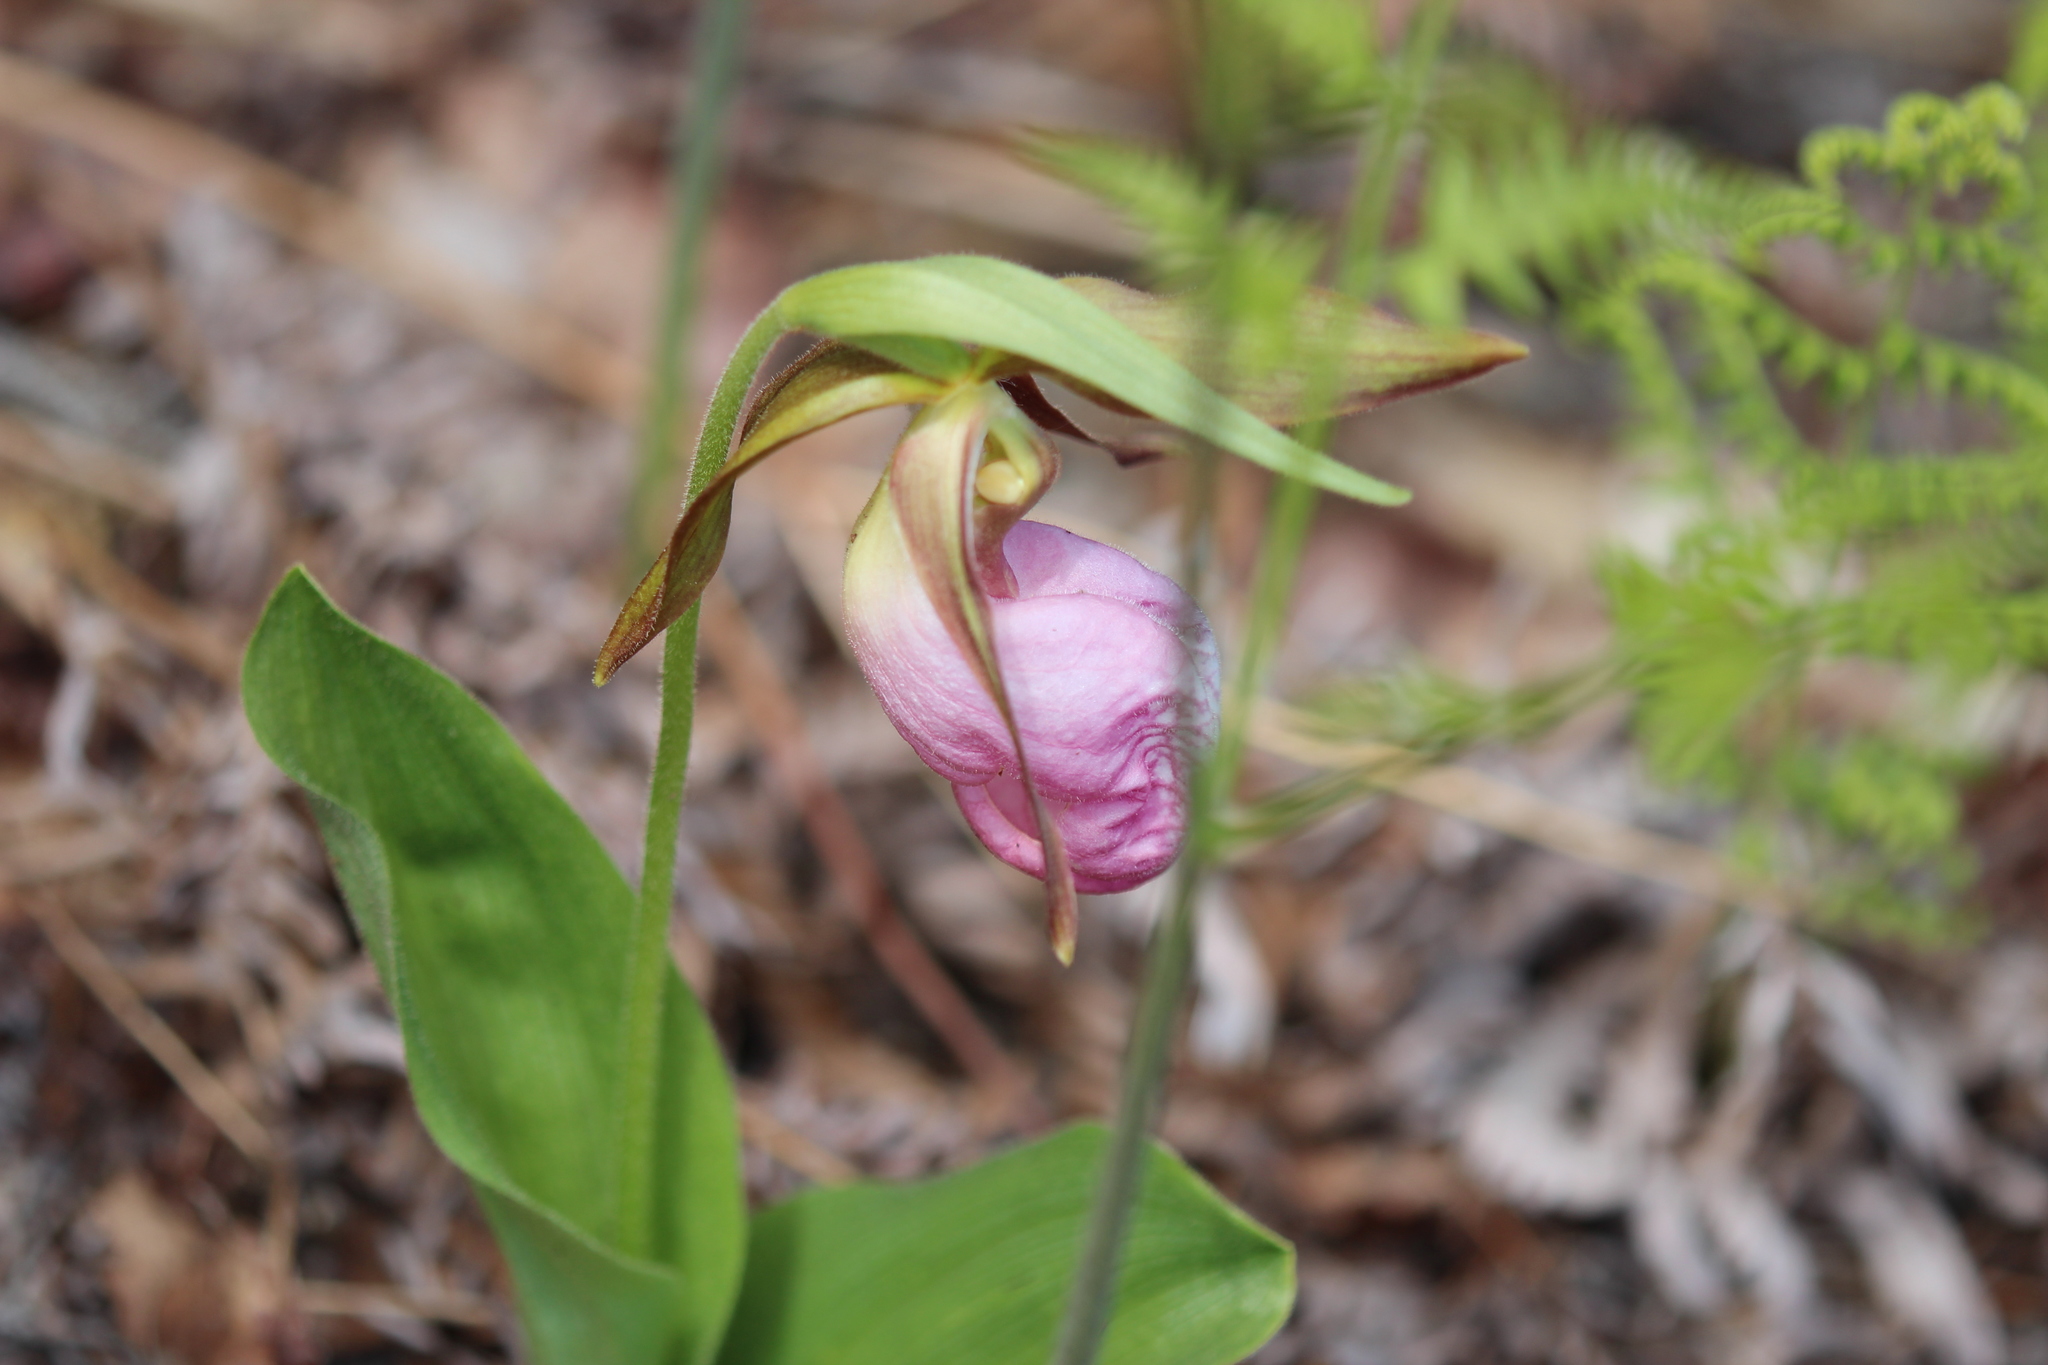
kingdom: Plantae
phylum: Tracheophyta
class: Liliopsida
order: Asparagales
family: Orchidaceae
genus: Cypripedium
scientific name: Cypripedium acaule
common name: Pink lady's-slipper
